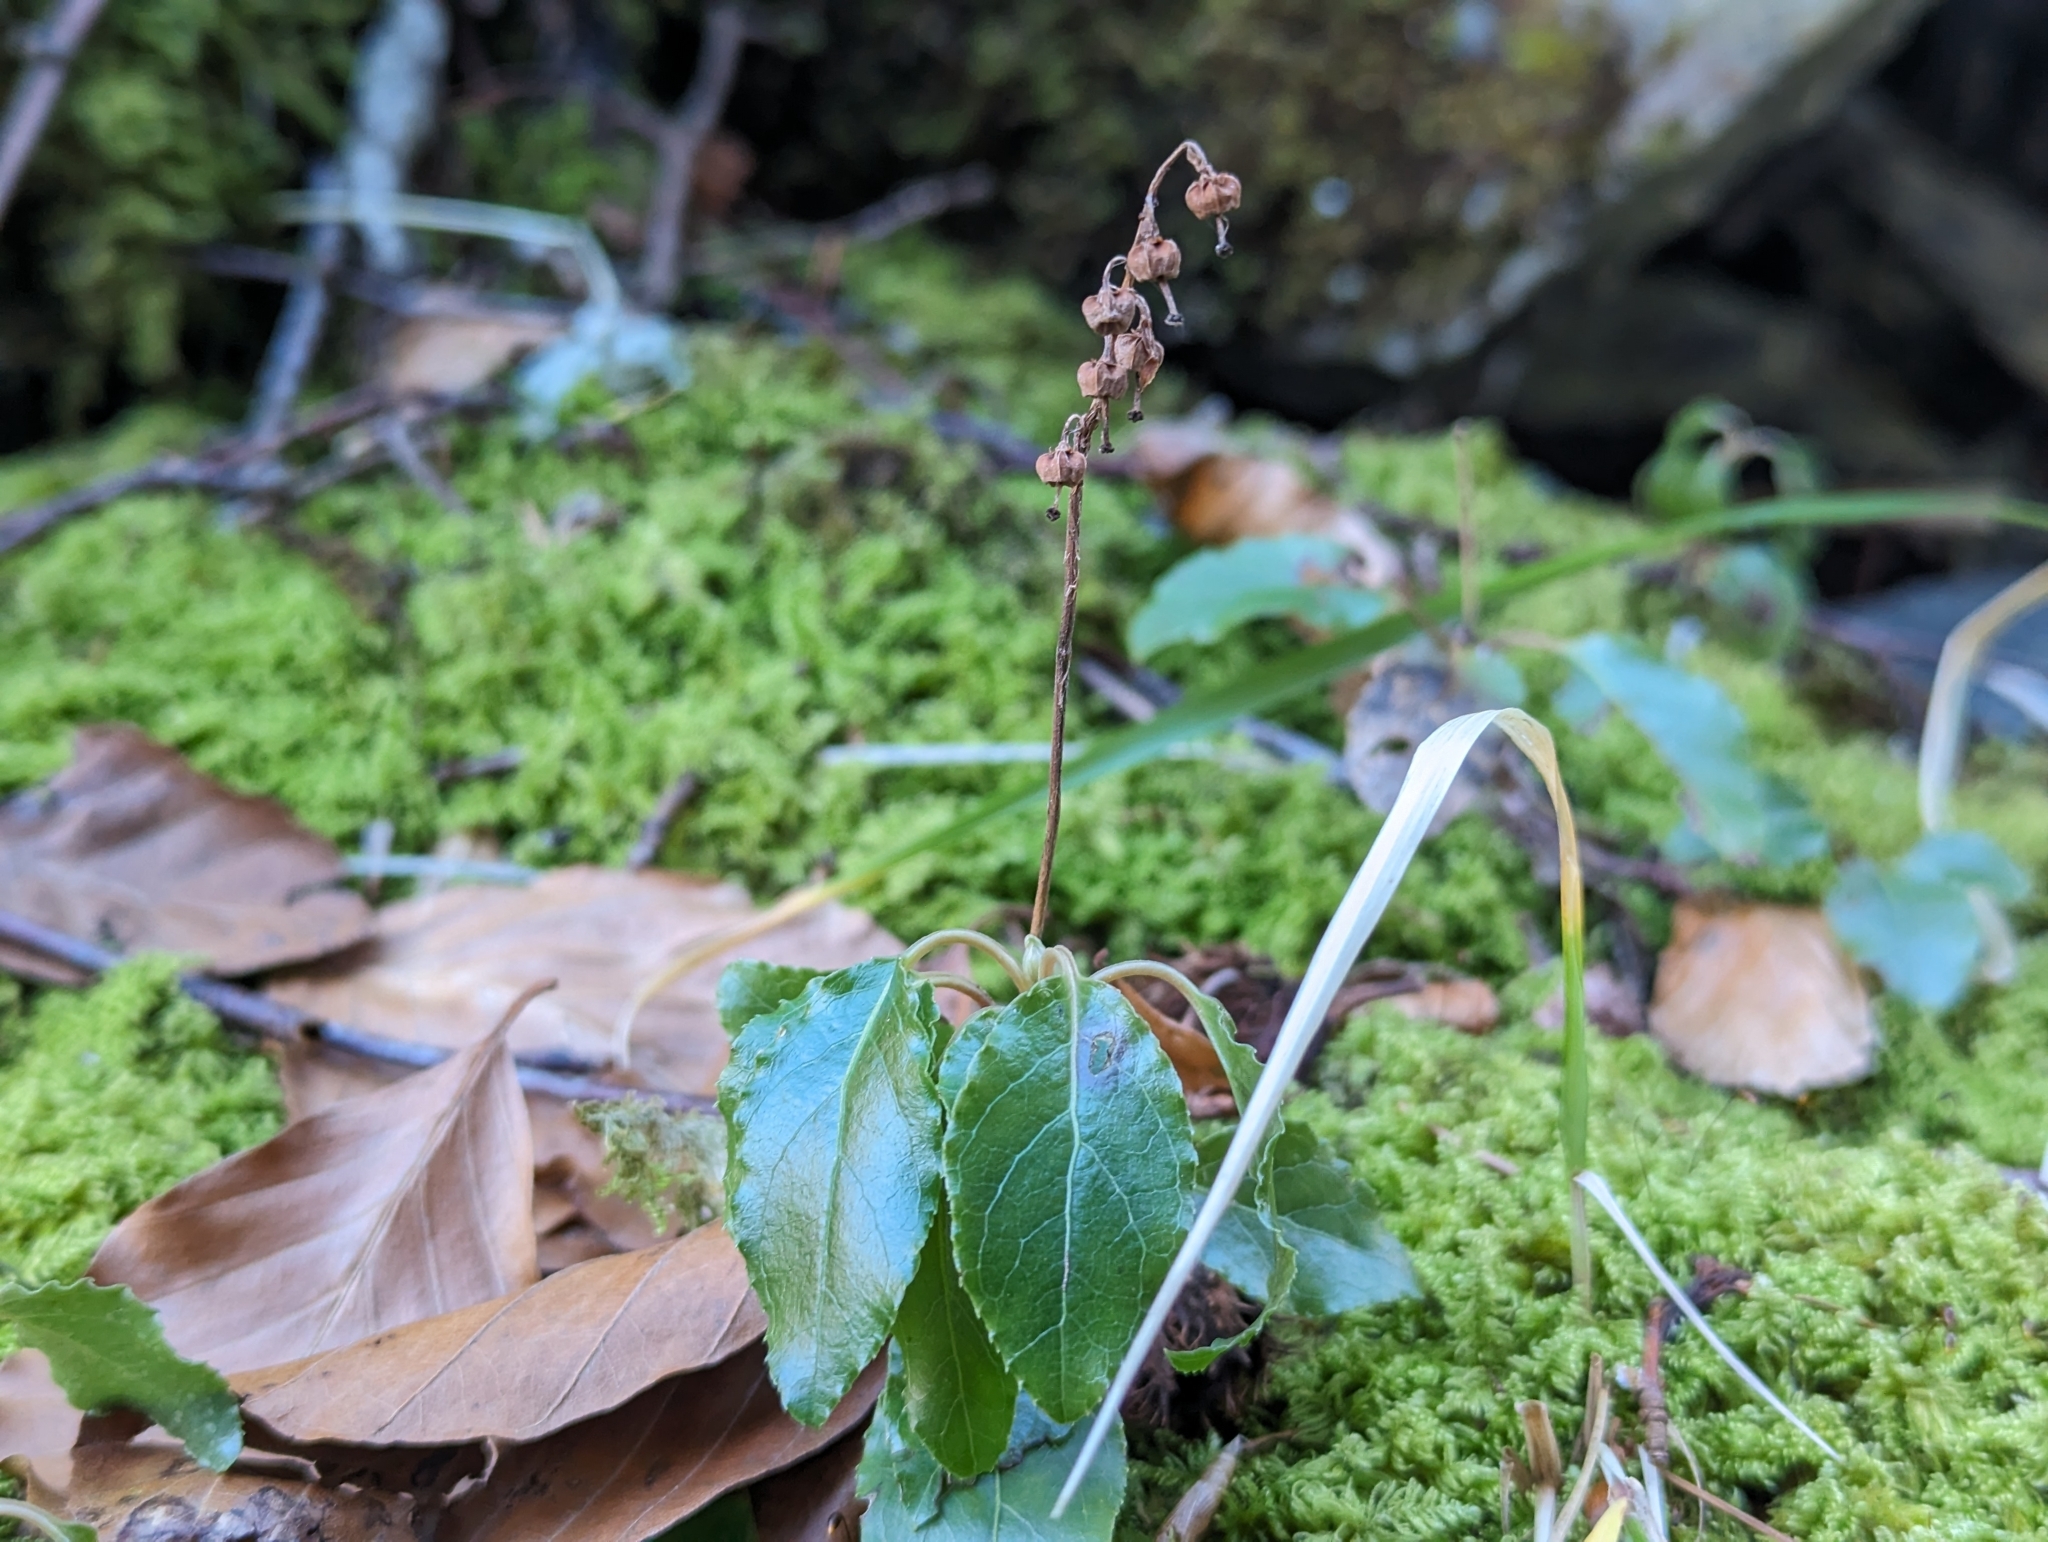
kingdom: Plantae
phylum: Tracheophyta
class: Magnoliopsida
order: Ericales
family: Ericaceae
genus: Orthilia
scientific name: Orthilia secunda
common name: One-sided orthilia
